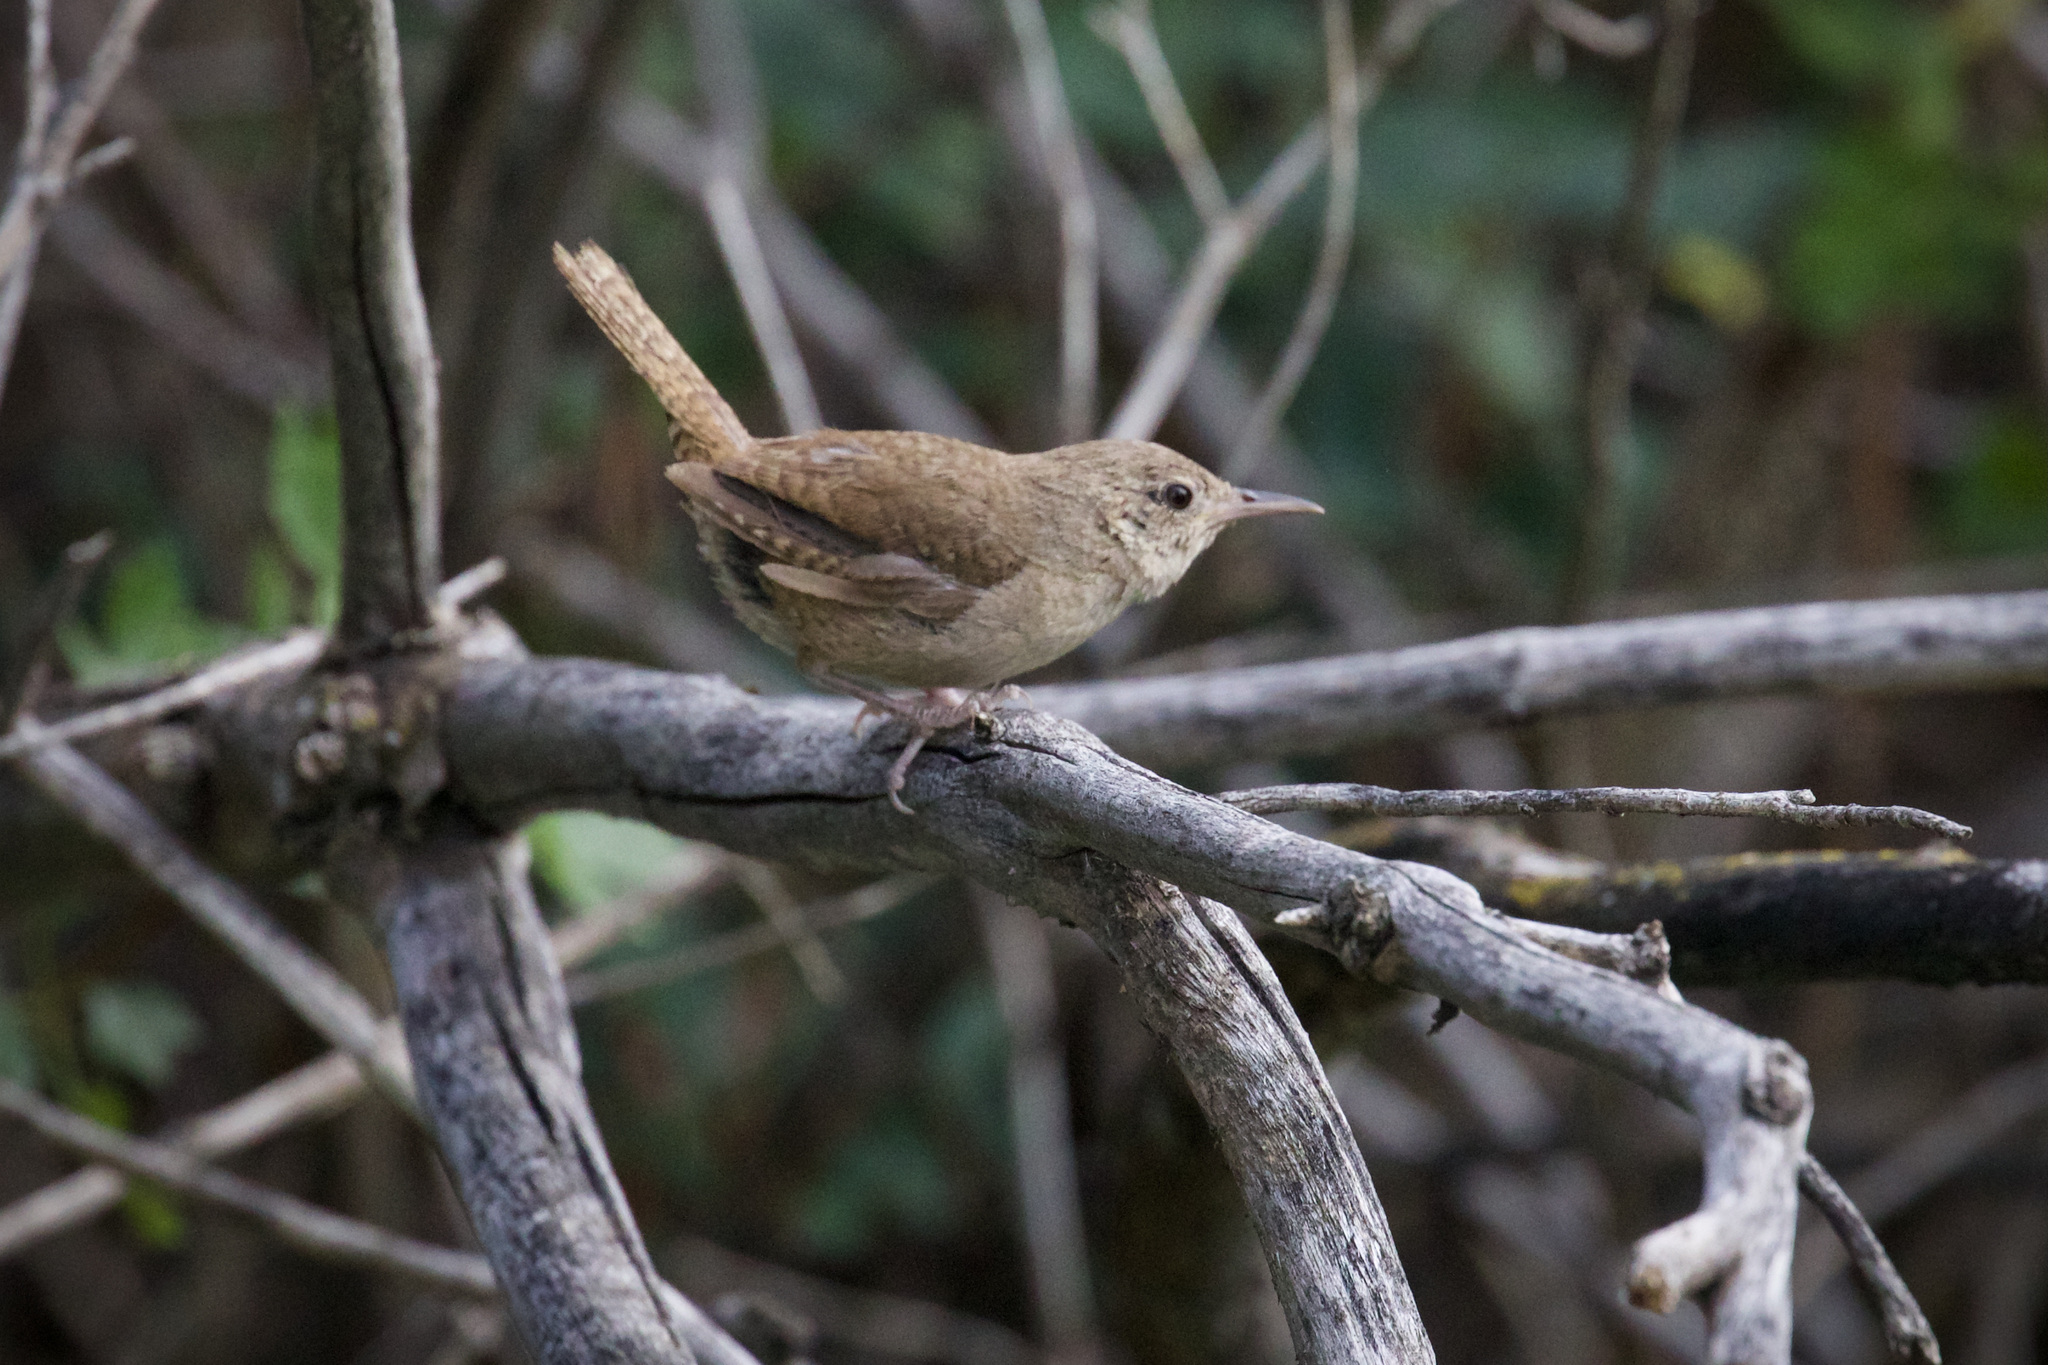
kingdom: Animalia
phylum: Chordata
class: Aves
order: Passeriformes
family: Troglodytidae
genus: Troglodytes
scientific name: Troglodytes aedon
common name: House wren
